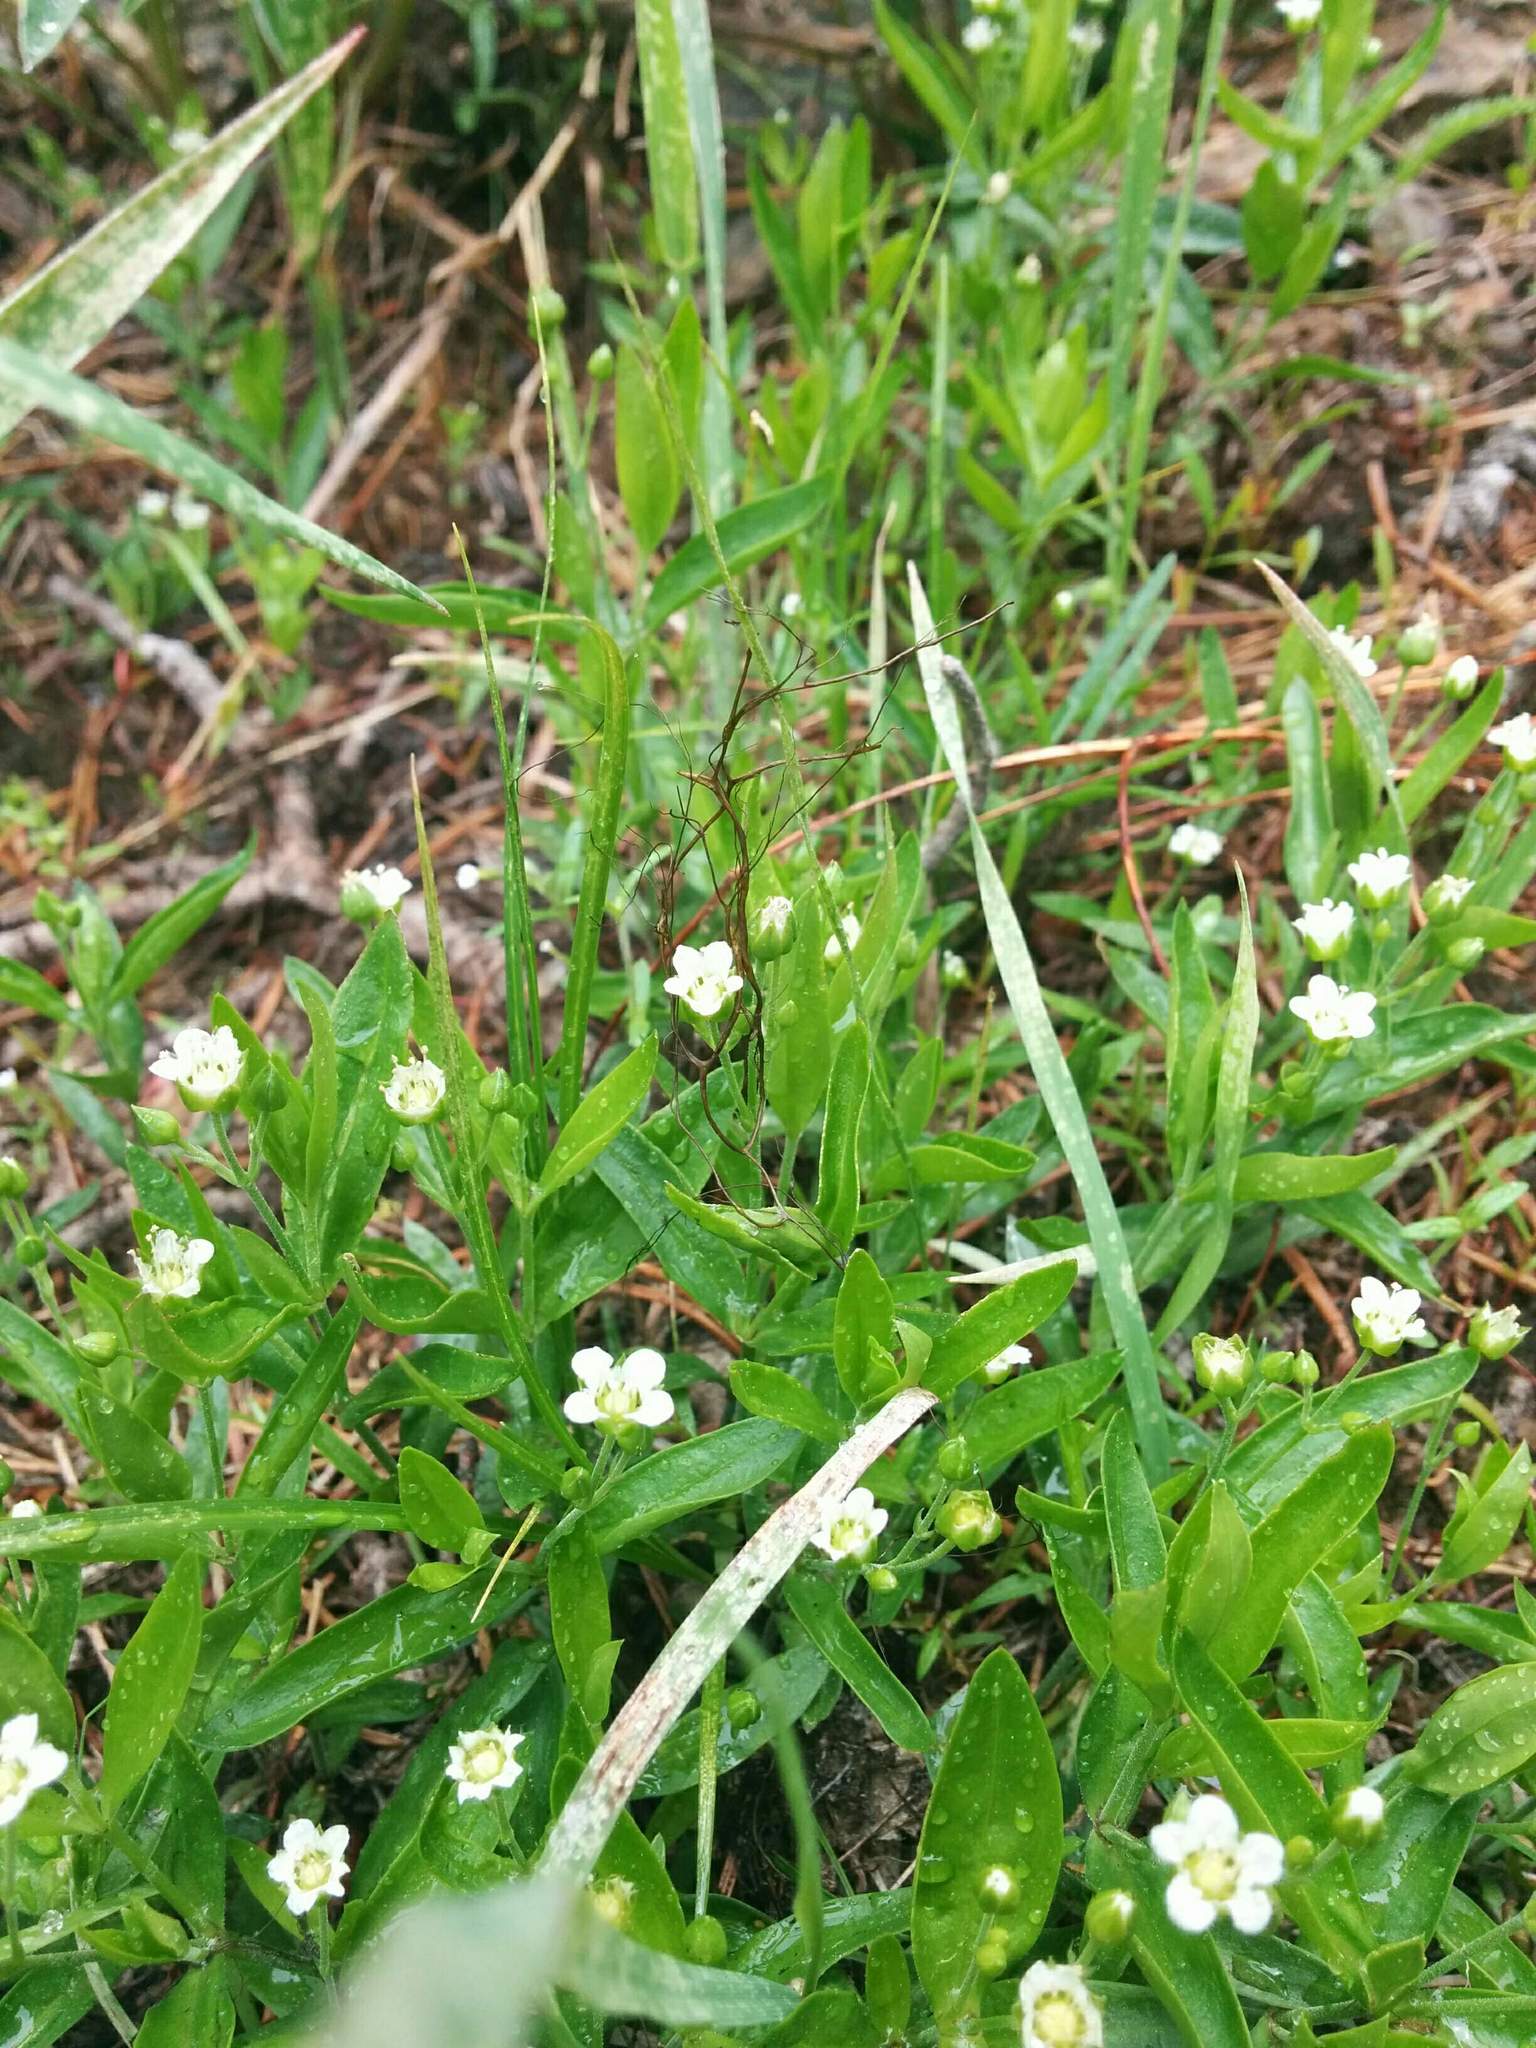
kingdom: Plantae
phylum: Tracheophyta
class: Magnoliopsida
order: Caryophyllales
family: Caryophyllaceae
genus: Moehringia
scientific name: Moehringia macrophylla
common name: Big-leaf sandwort
